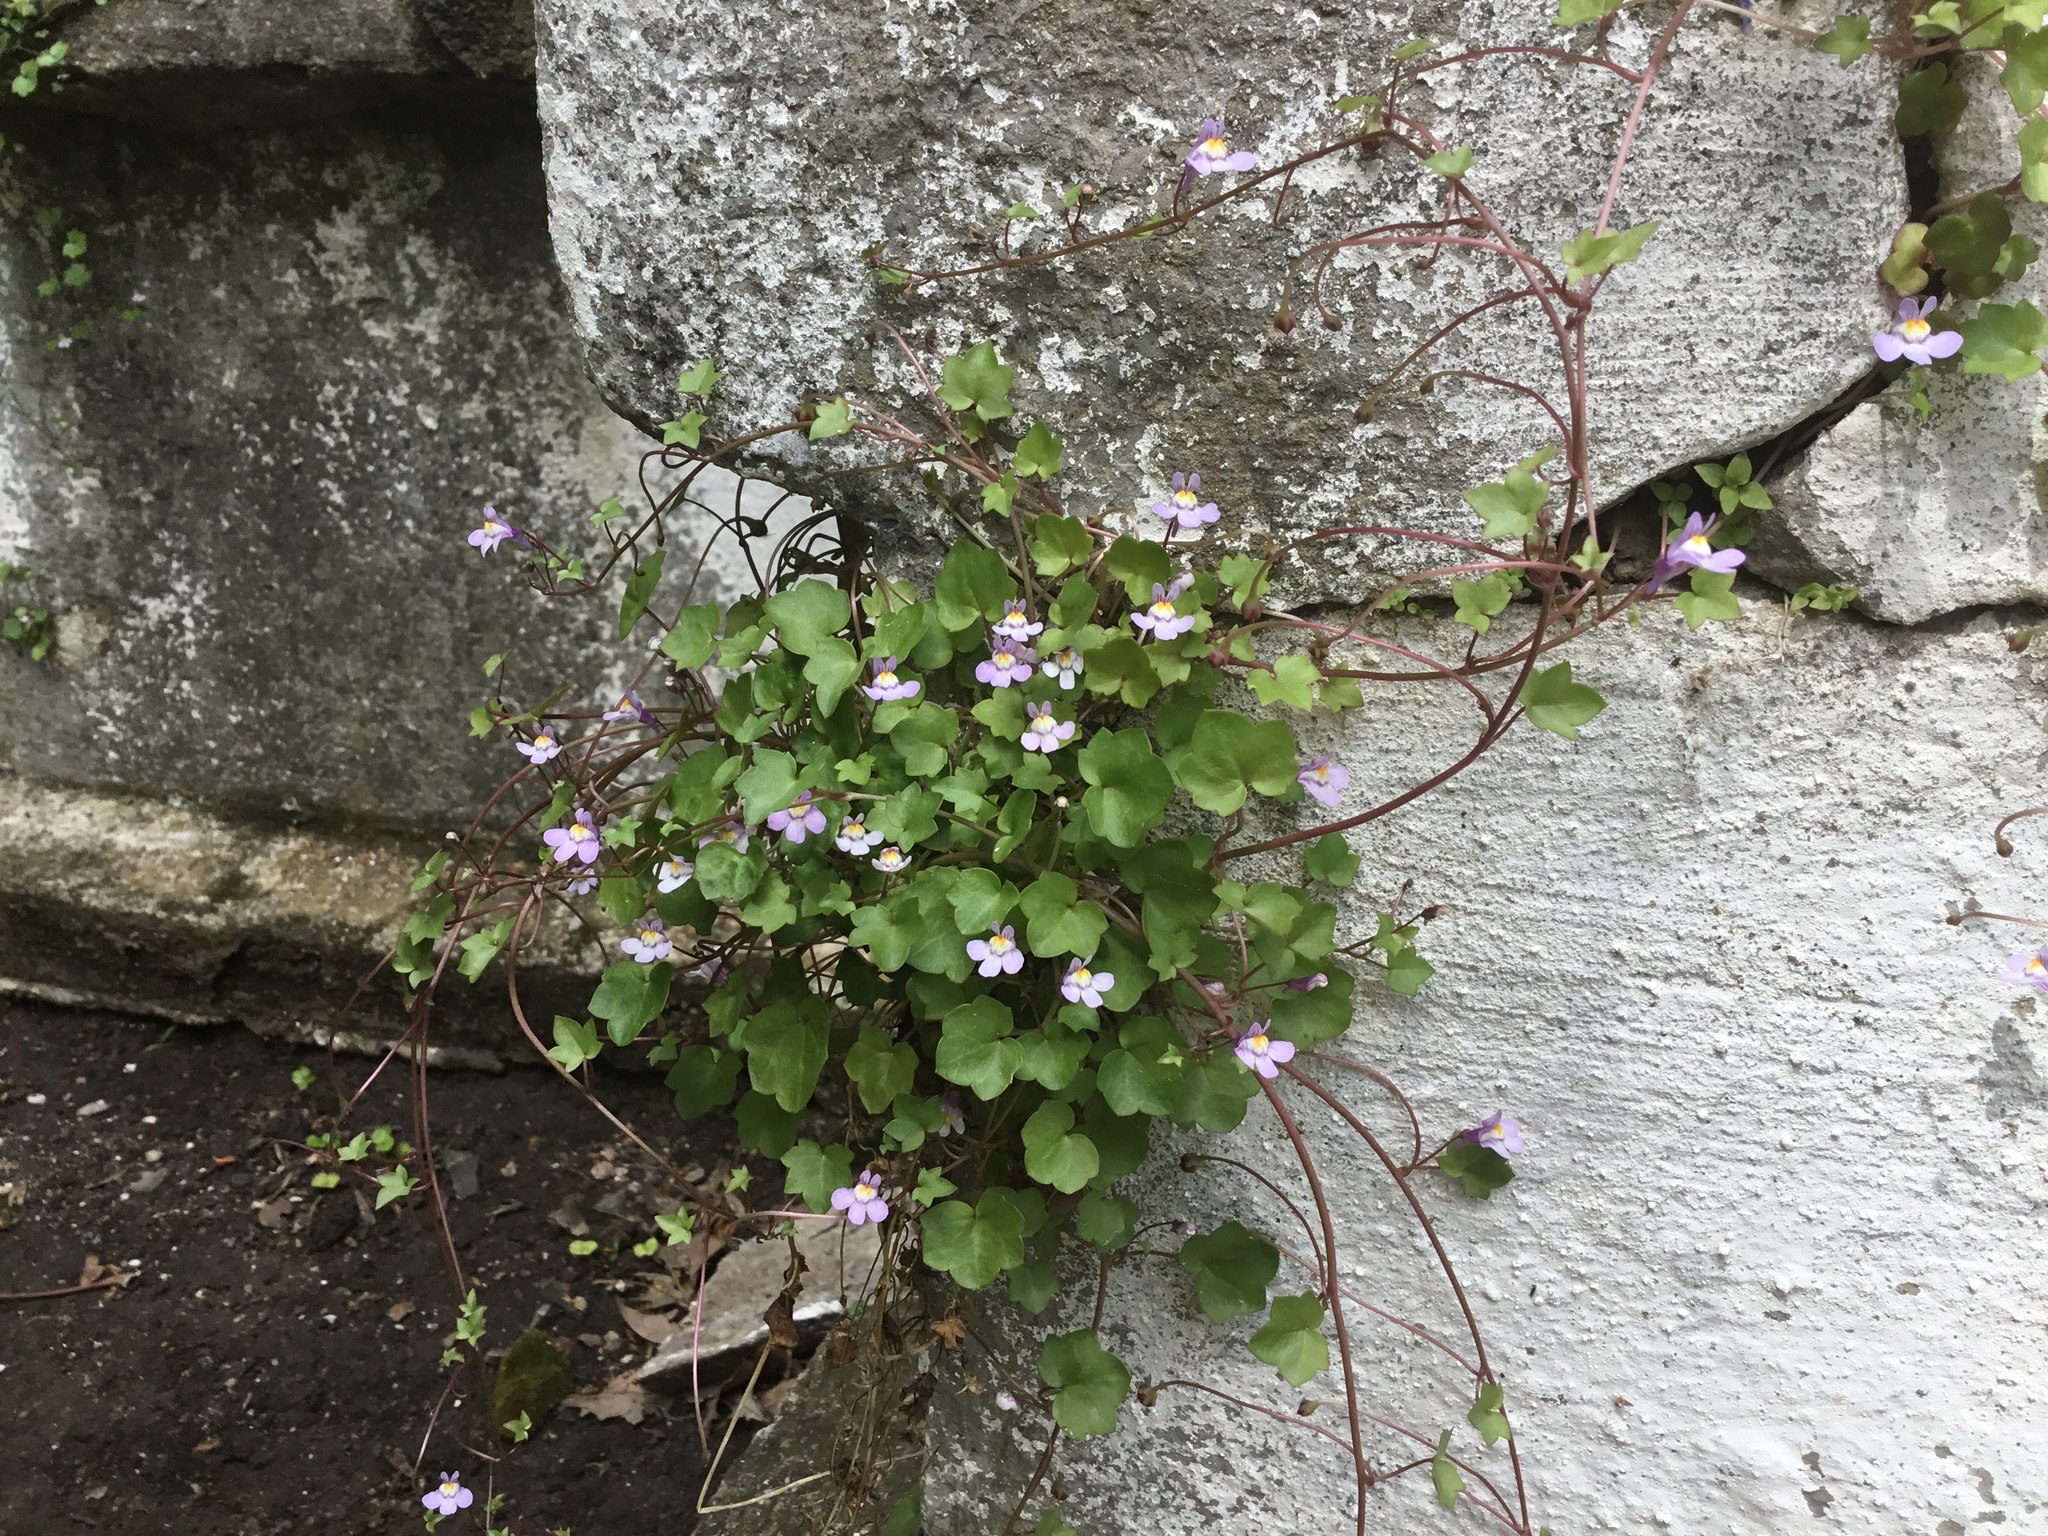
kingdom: Plantae
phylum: Tracheophyta
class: Magnoliopsida
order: Lamiales
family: Plantaginaceae
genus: Cymbalaria
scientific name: Cymbalaria muralis
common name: Ivy-leaved toadflax
